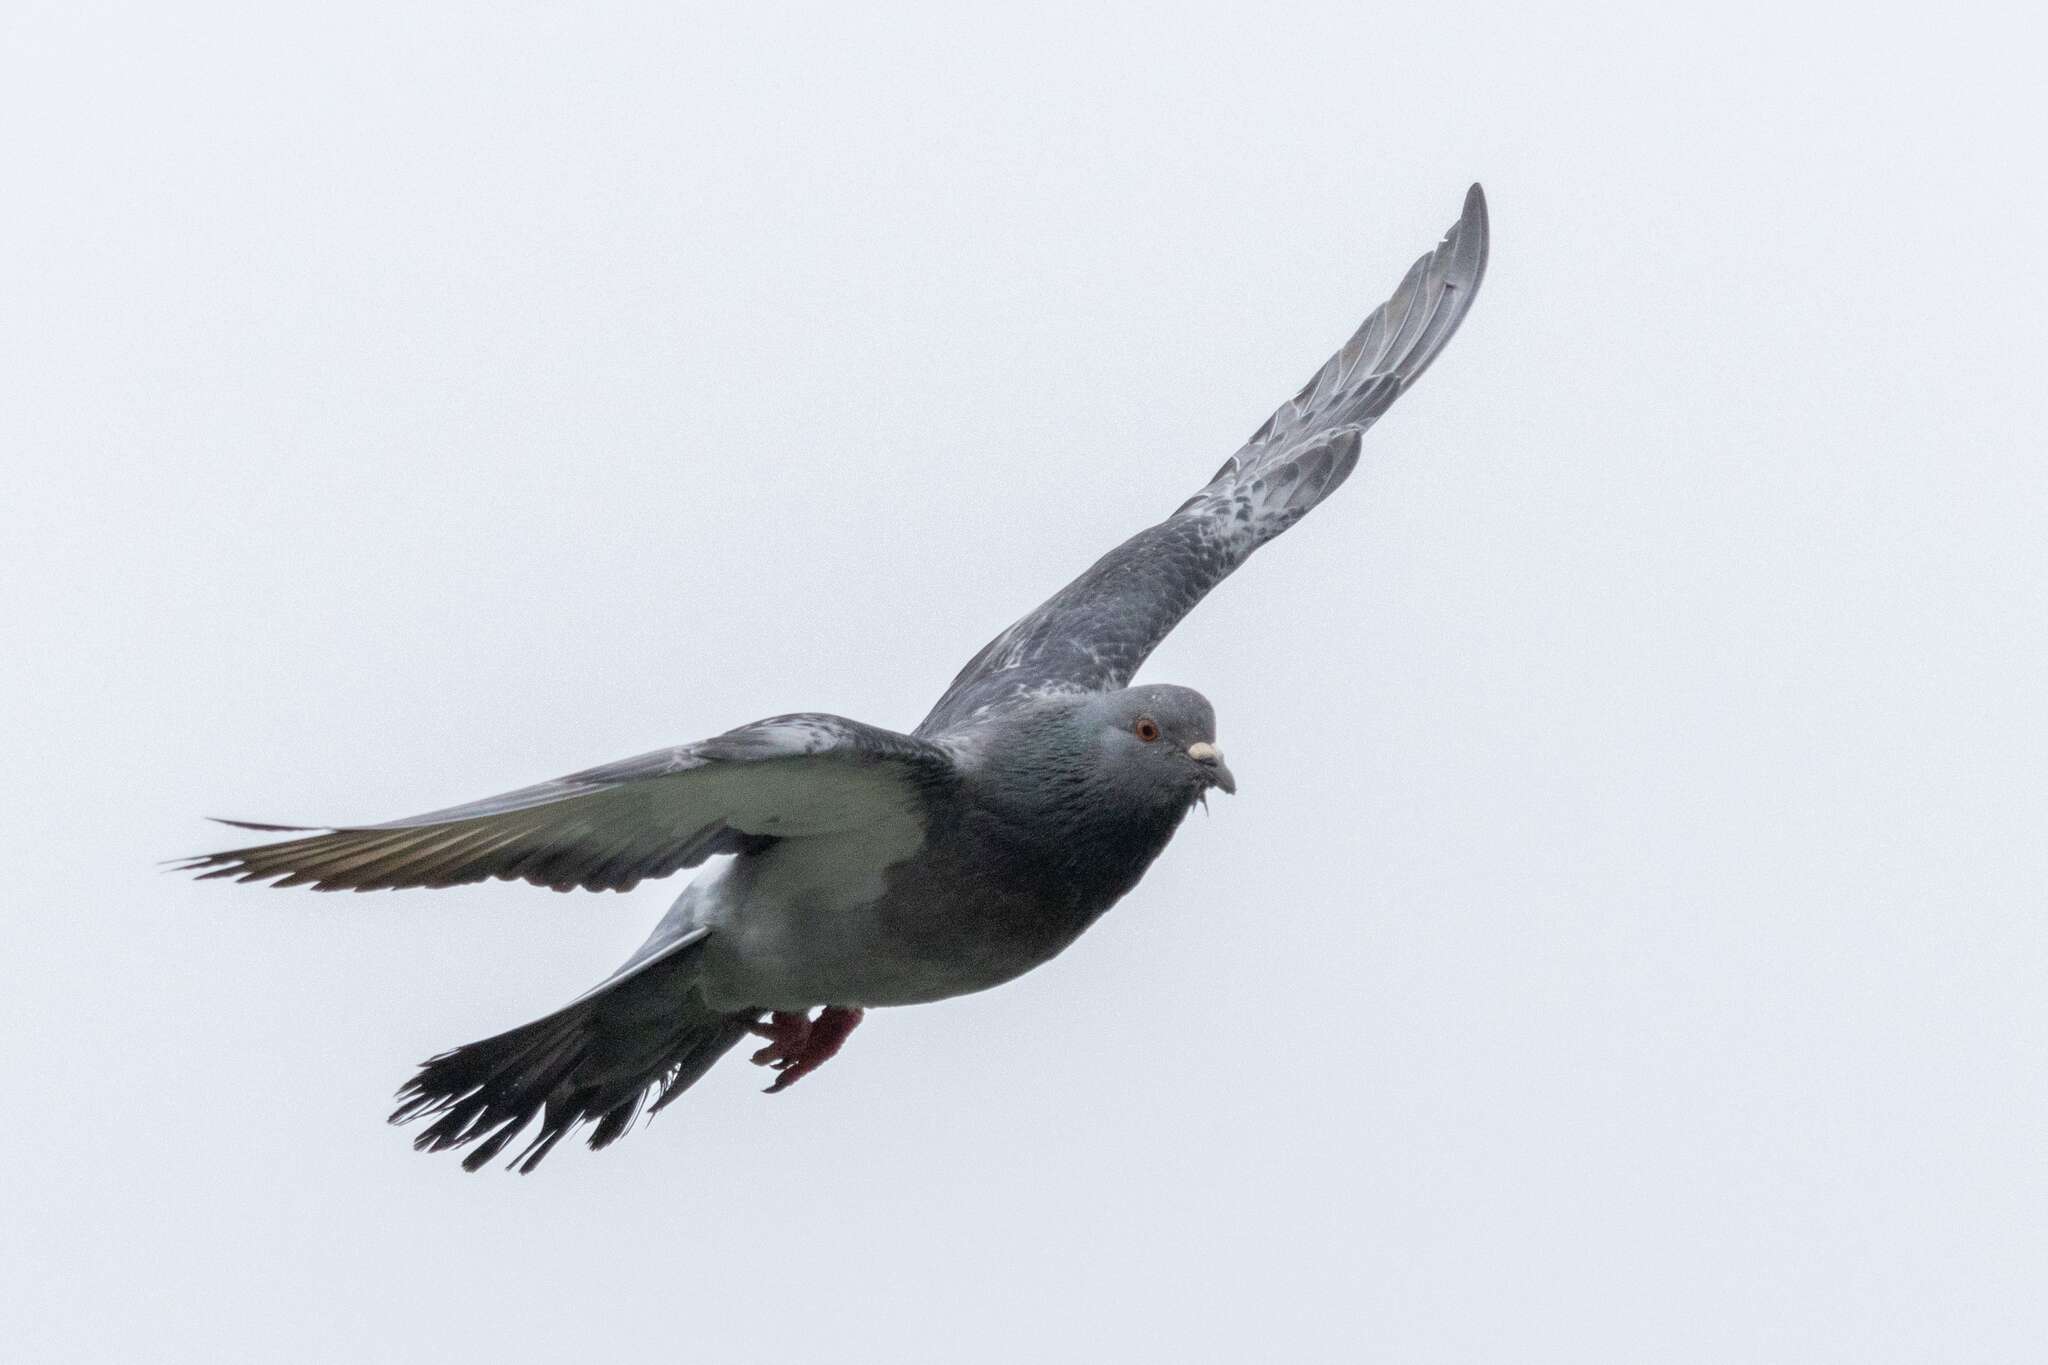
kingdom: Animalia
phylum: Chordata
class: Aves
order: Columbiformes
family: Columbidae
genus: Columba
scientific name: Columba livia
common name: Rock pigeon
